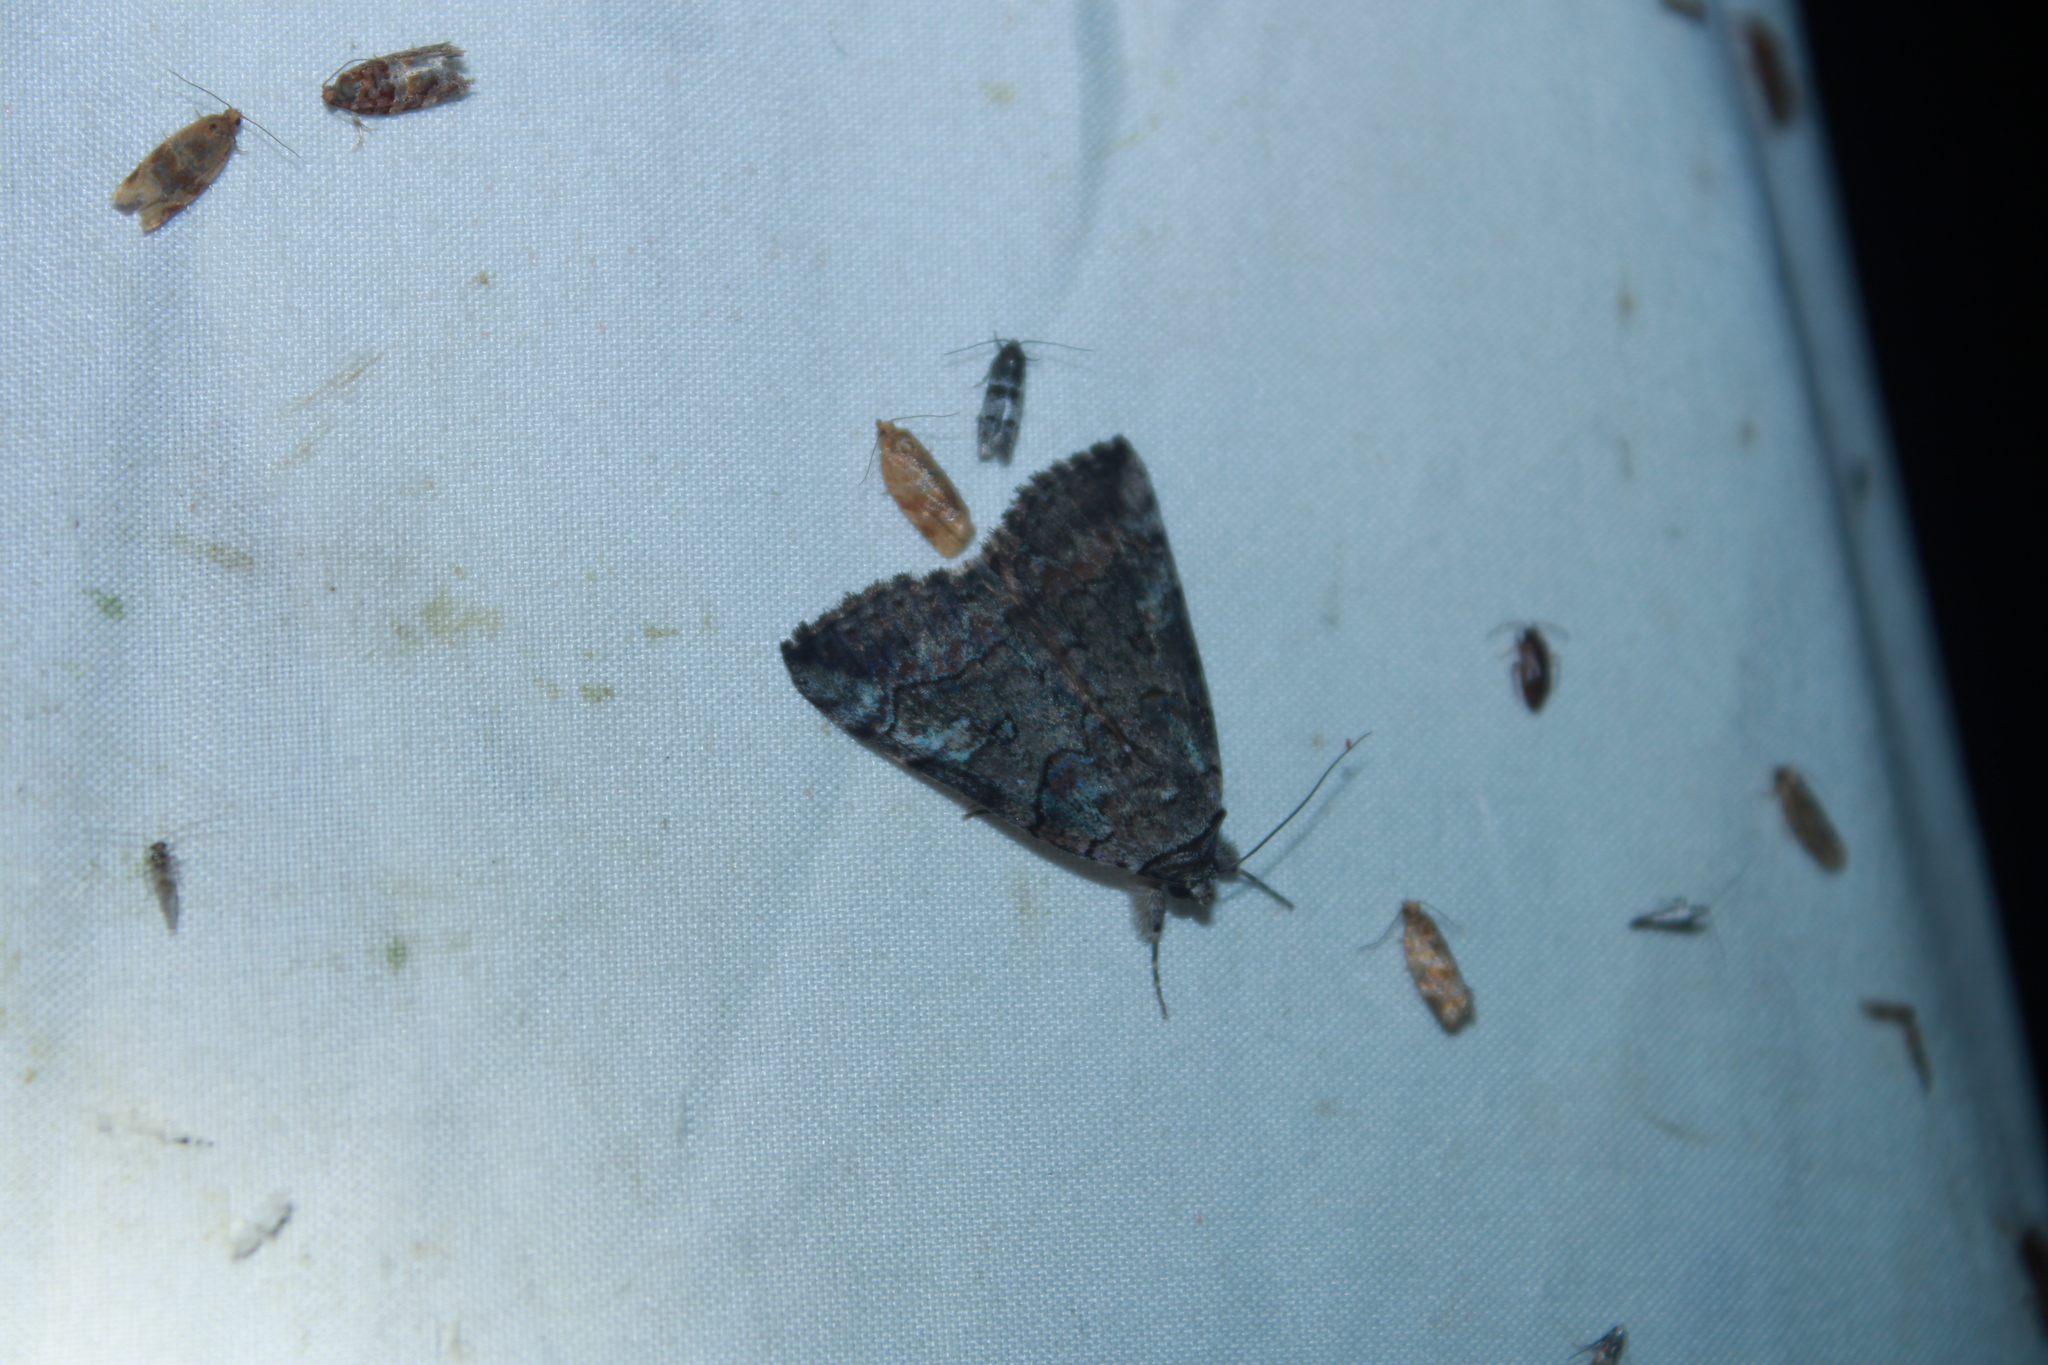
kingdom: Animalia
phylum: Arthropoda
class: Insecta
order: Lepidoptera
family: Erebidae
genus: Catocala
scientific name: Catocala similis
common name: Similar underwing
